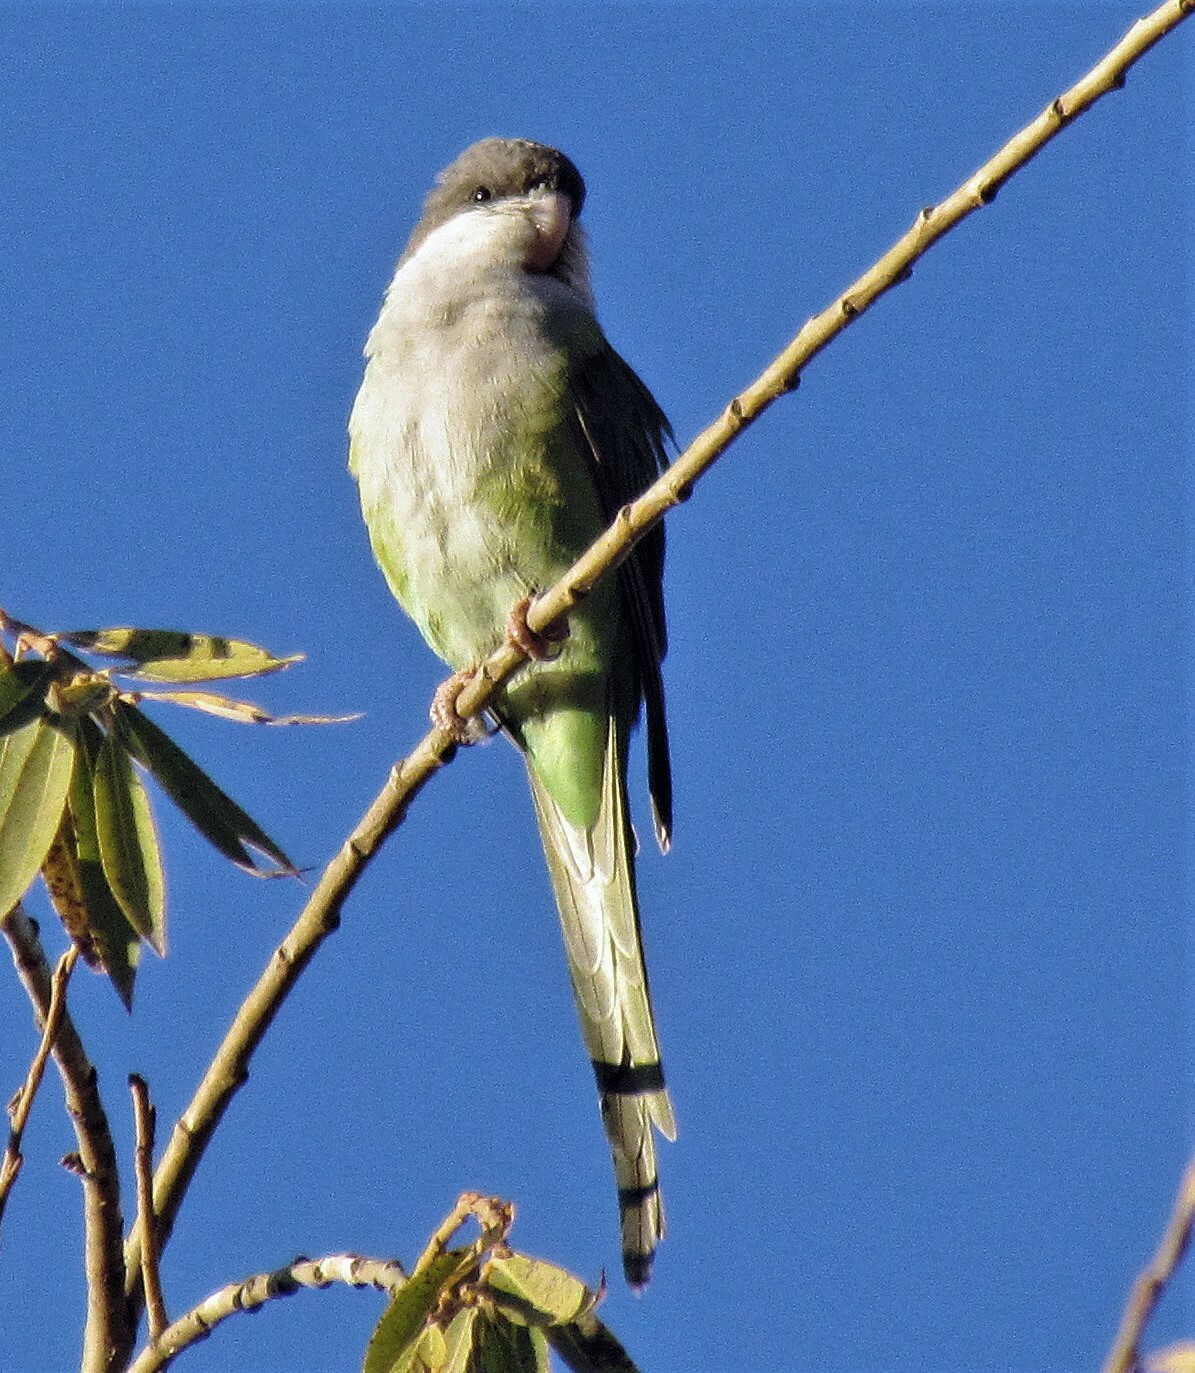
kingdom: Animalia
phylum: Chordata
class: Aves
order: Psittaciformes
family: Psittacidae
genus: Psilopsiagon
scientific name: Psilopsiagon aymara
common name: Grey-hooded parakeet
